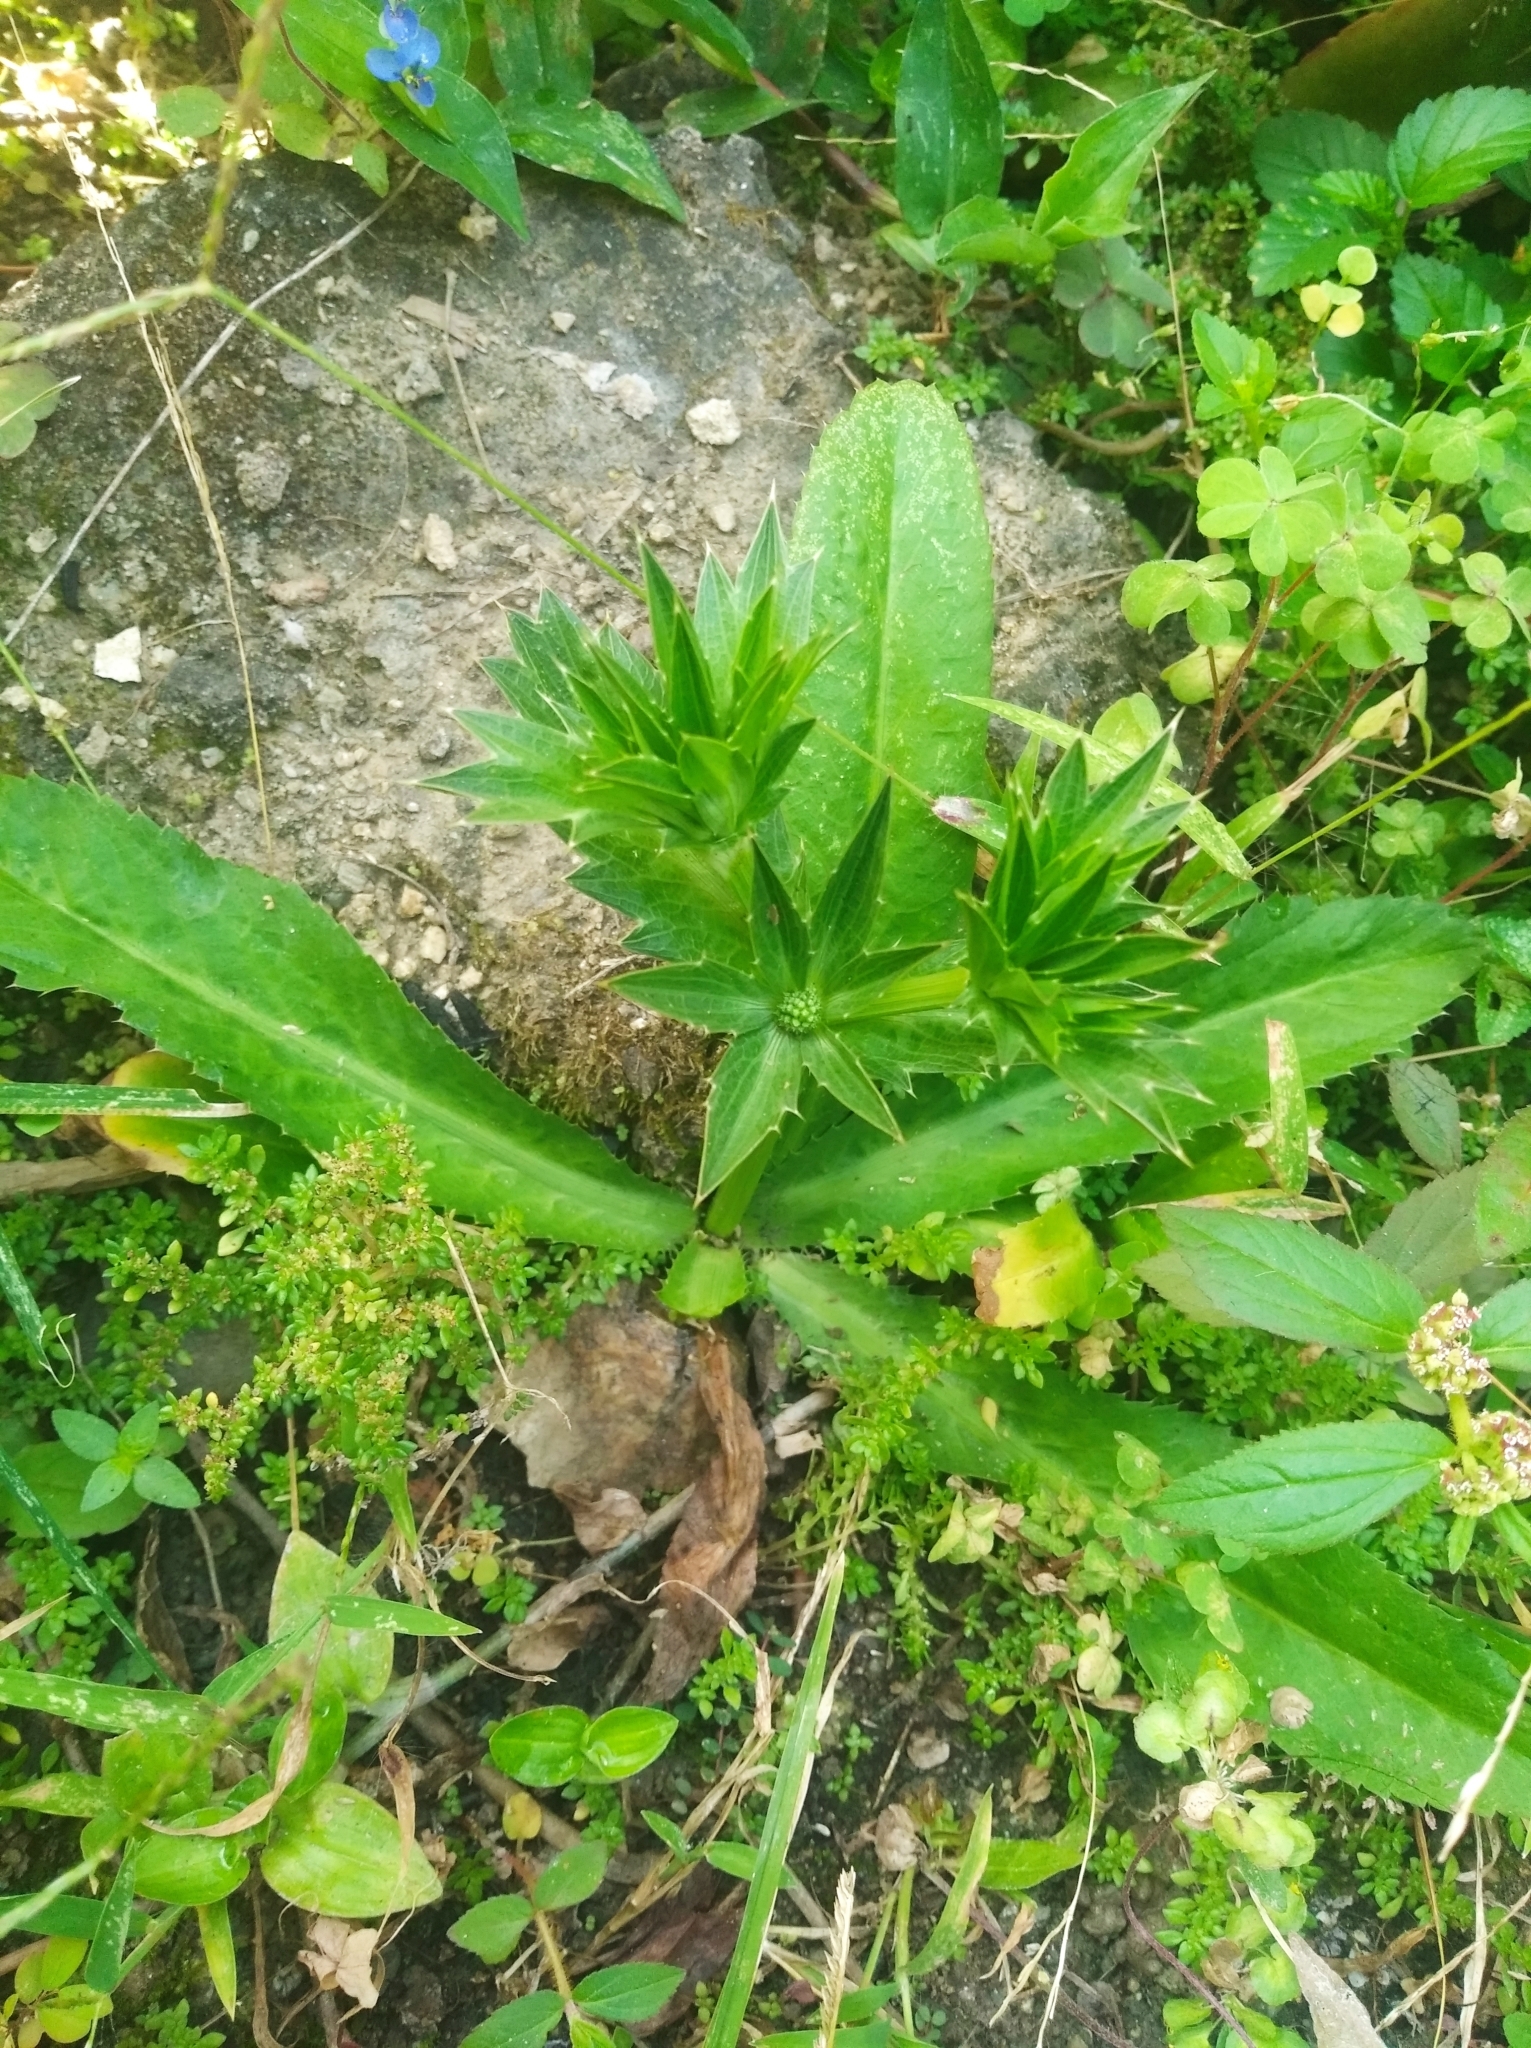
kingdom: Plantae
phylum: Tracheophyta
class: Magnoliopsida
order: Apiales
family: Apiaceae
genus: Eryngium
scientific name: Eryngium foetidum
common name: Fitweed
